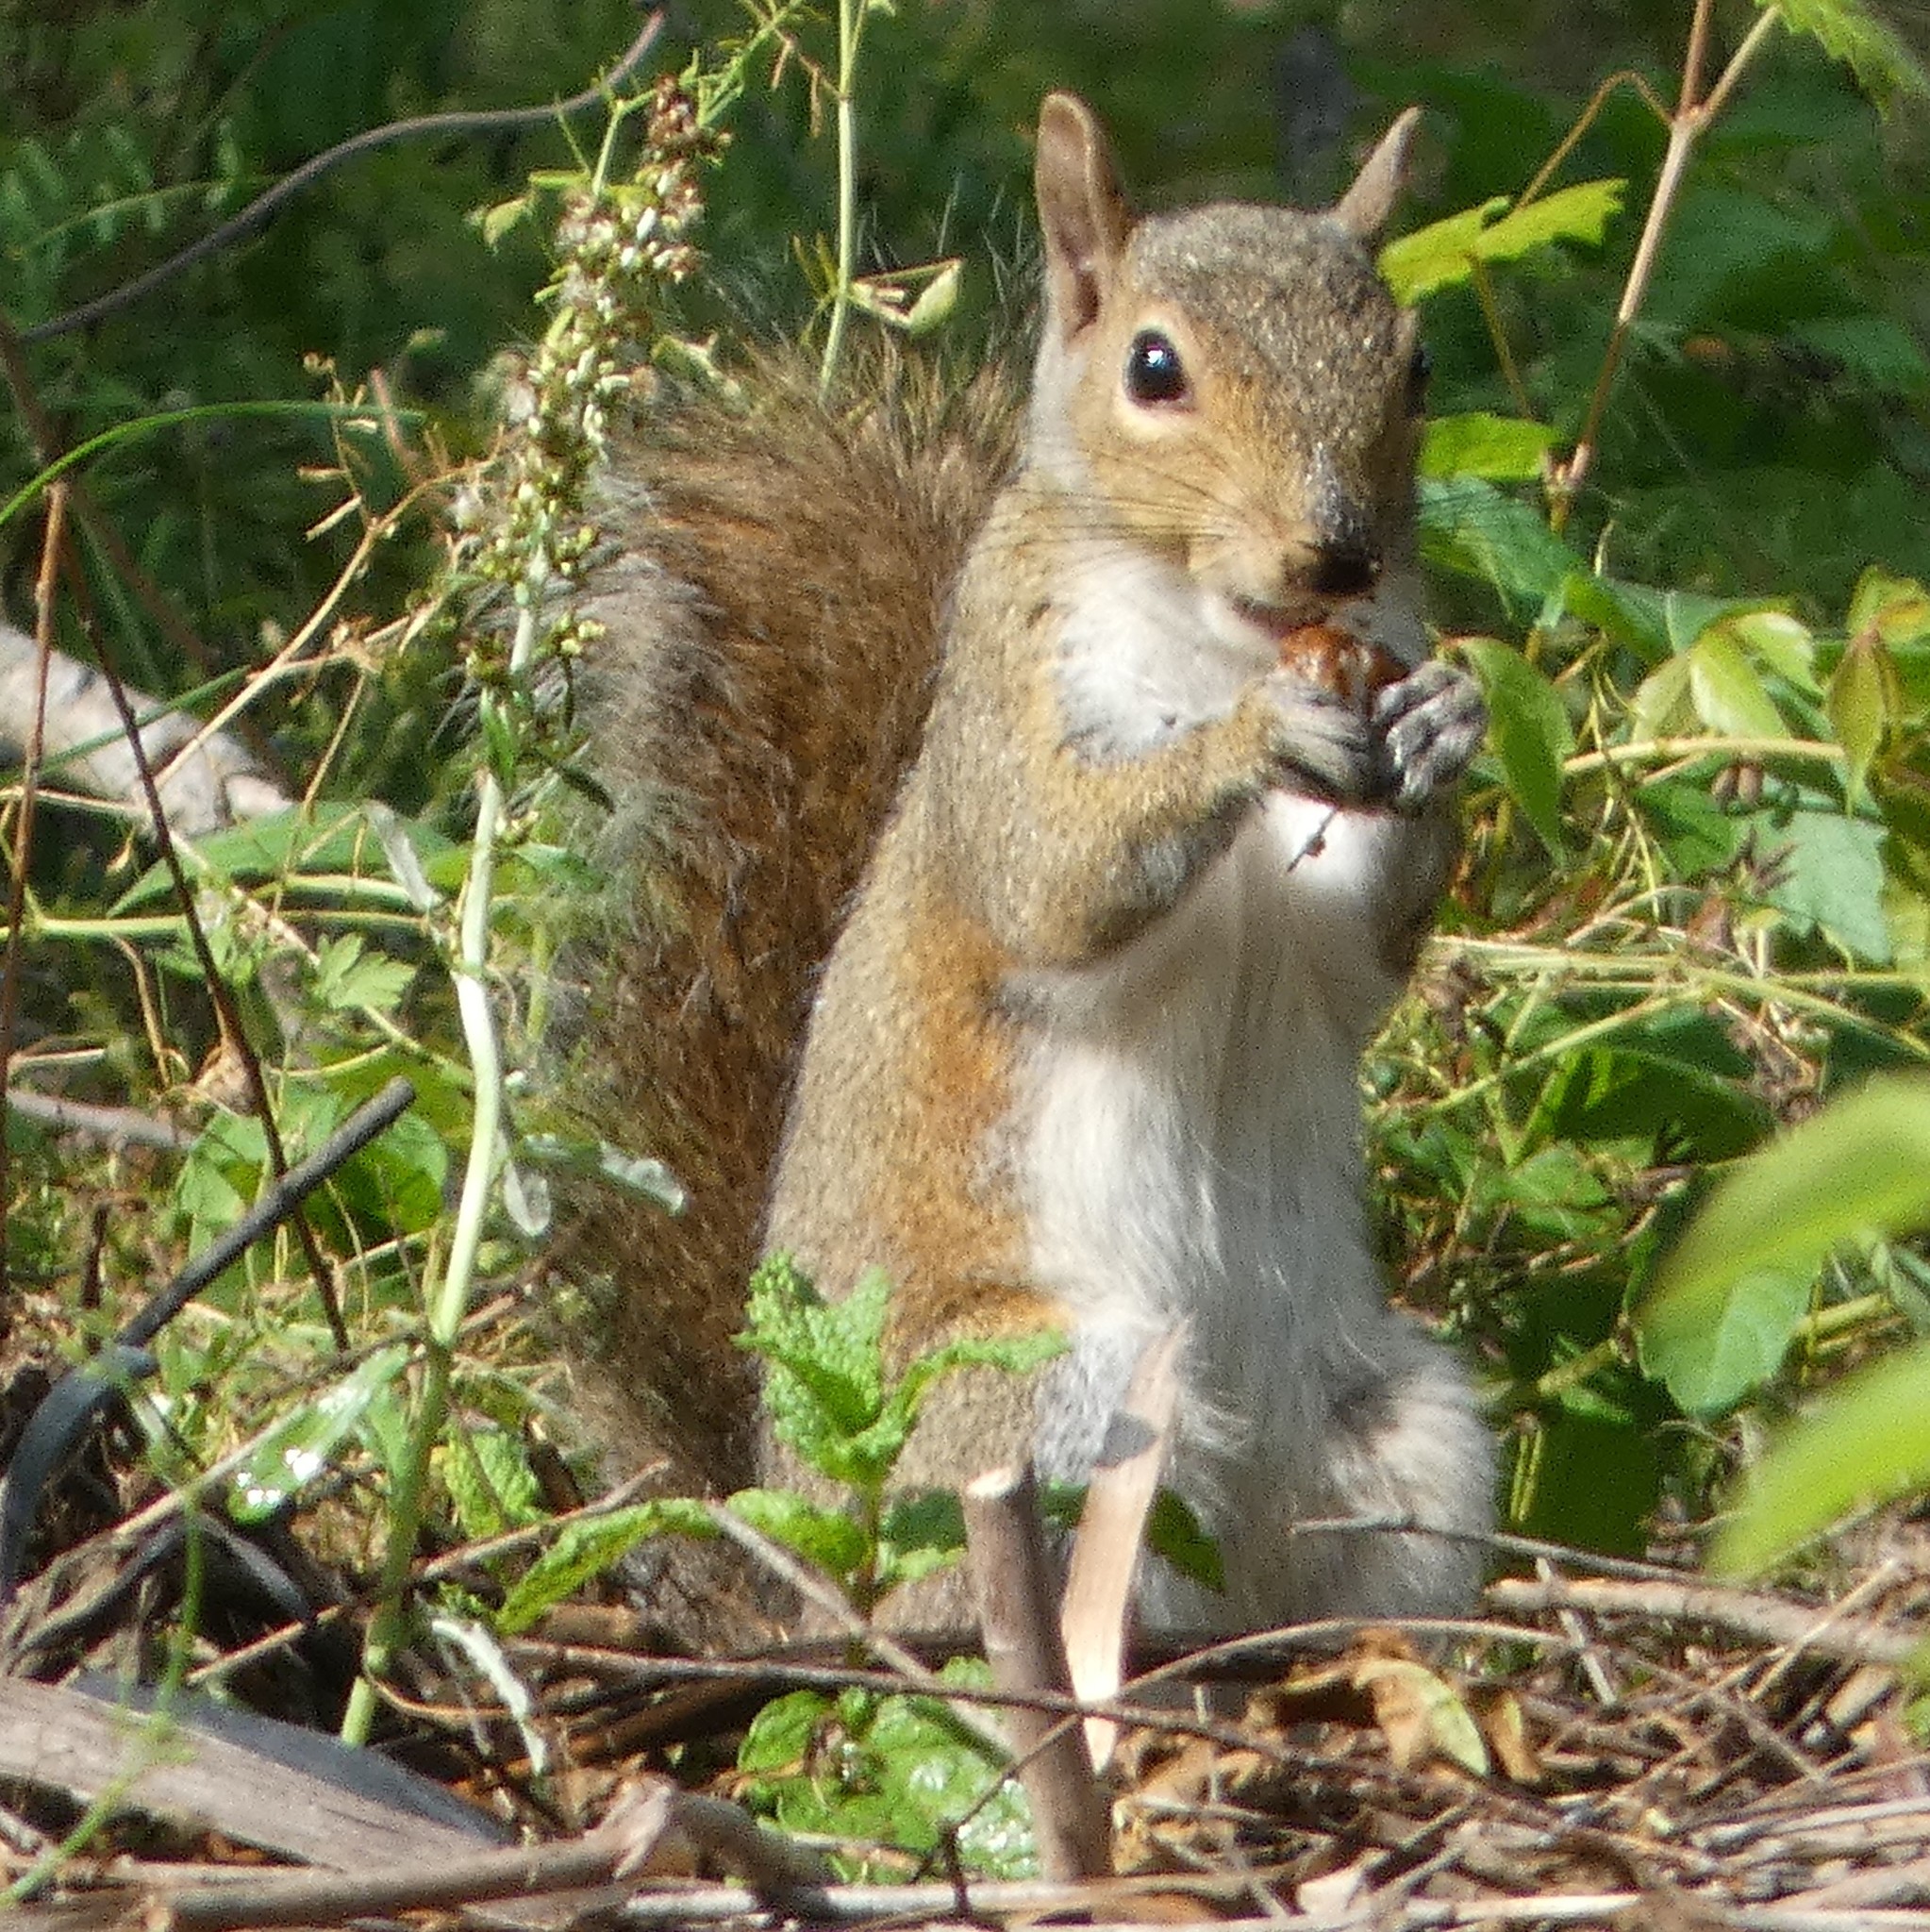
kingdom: Animalia
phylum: Chordata
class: Mammalia
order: Rodentia
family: Sciuridae
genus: Sciurus
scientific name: Sciurus carolinensis
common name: Eastern gray squirrel
